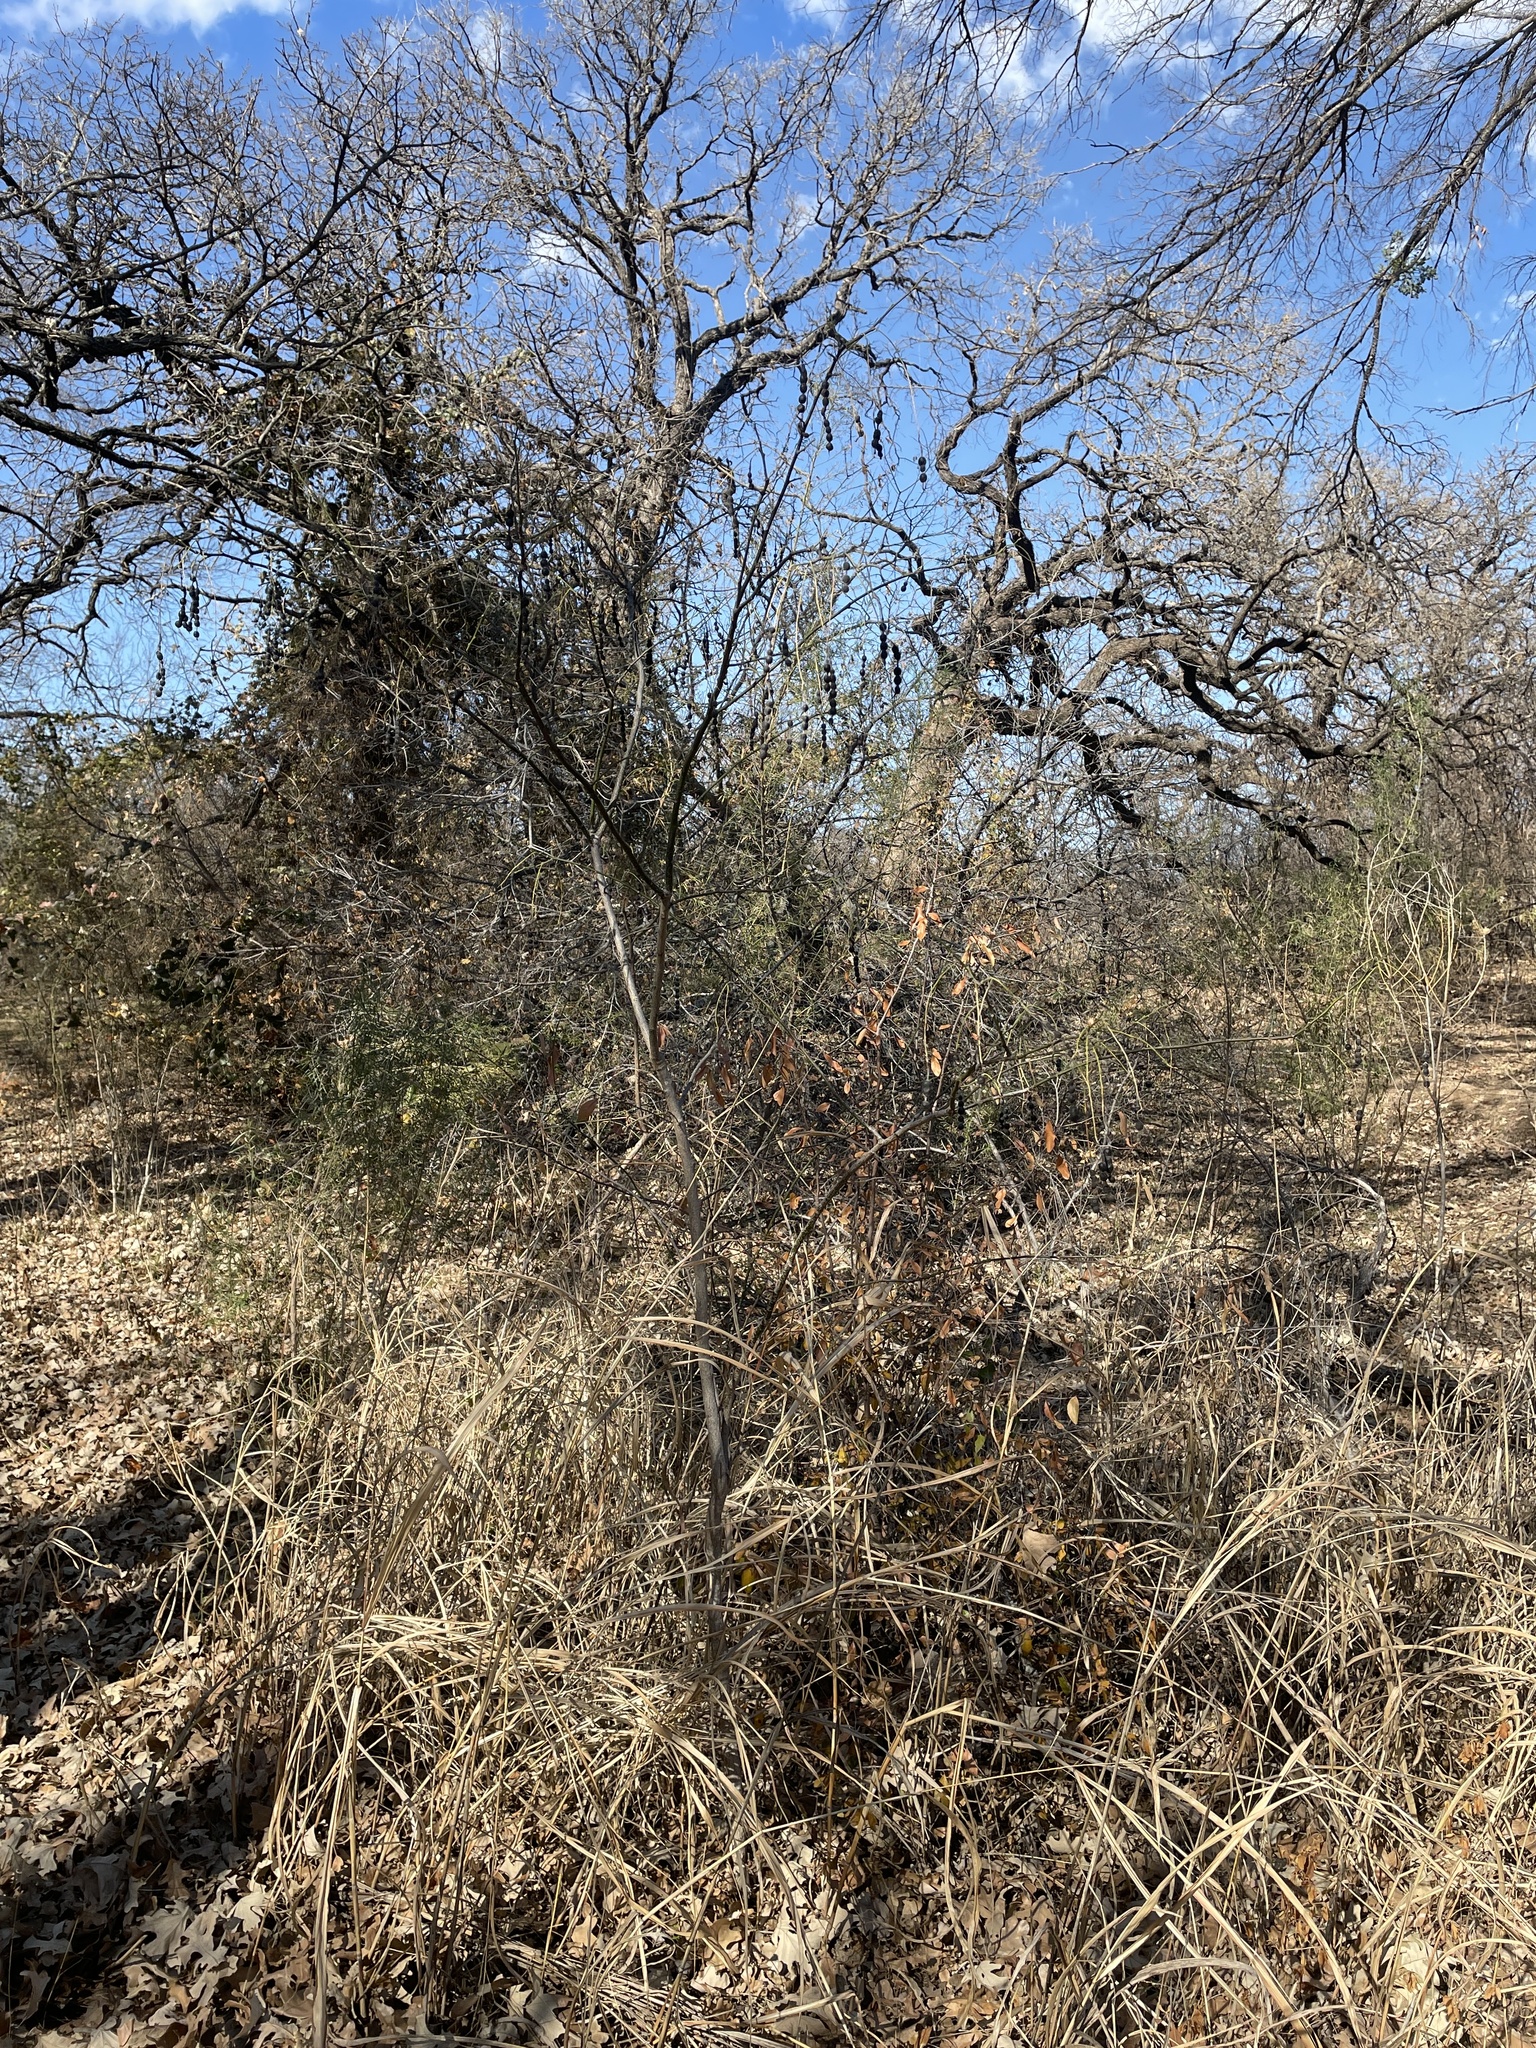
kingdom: Plantae
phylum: Tracheophyta
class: Magnoliopsida
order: Fabales
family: Fabaceae
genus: Styphnolobium
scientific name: Styphnolobium affine
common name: Texas sophora
